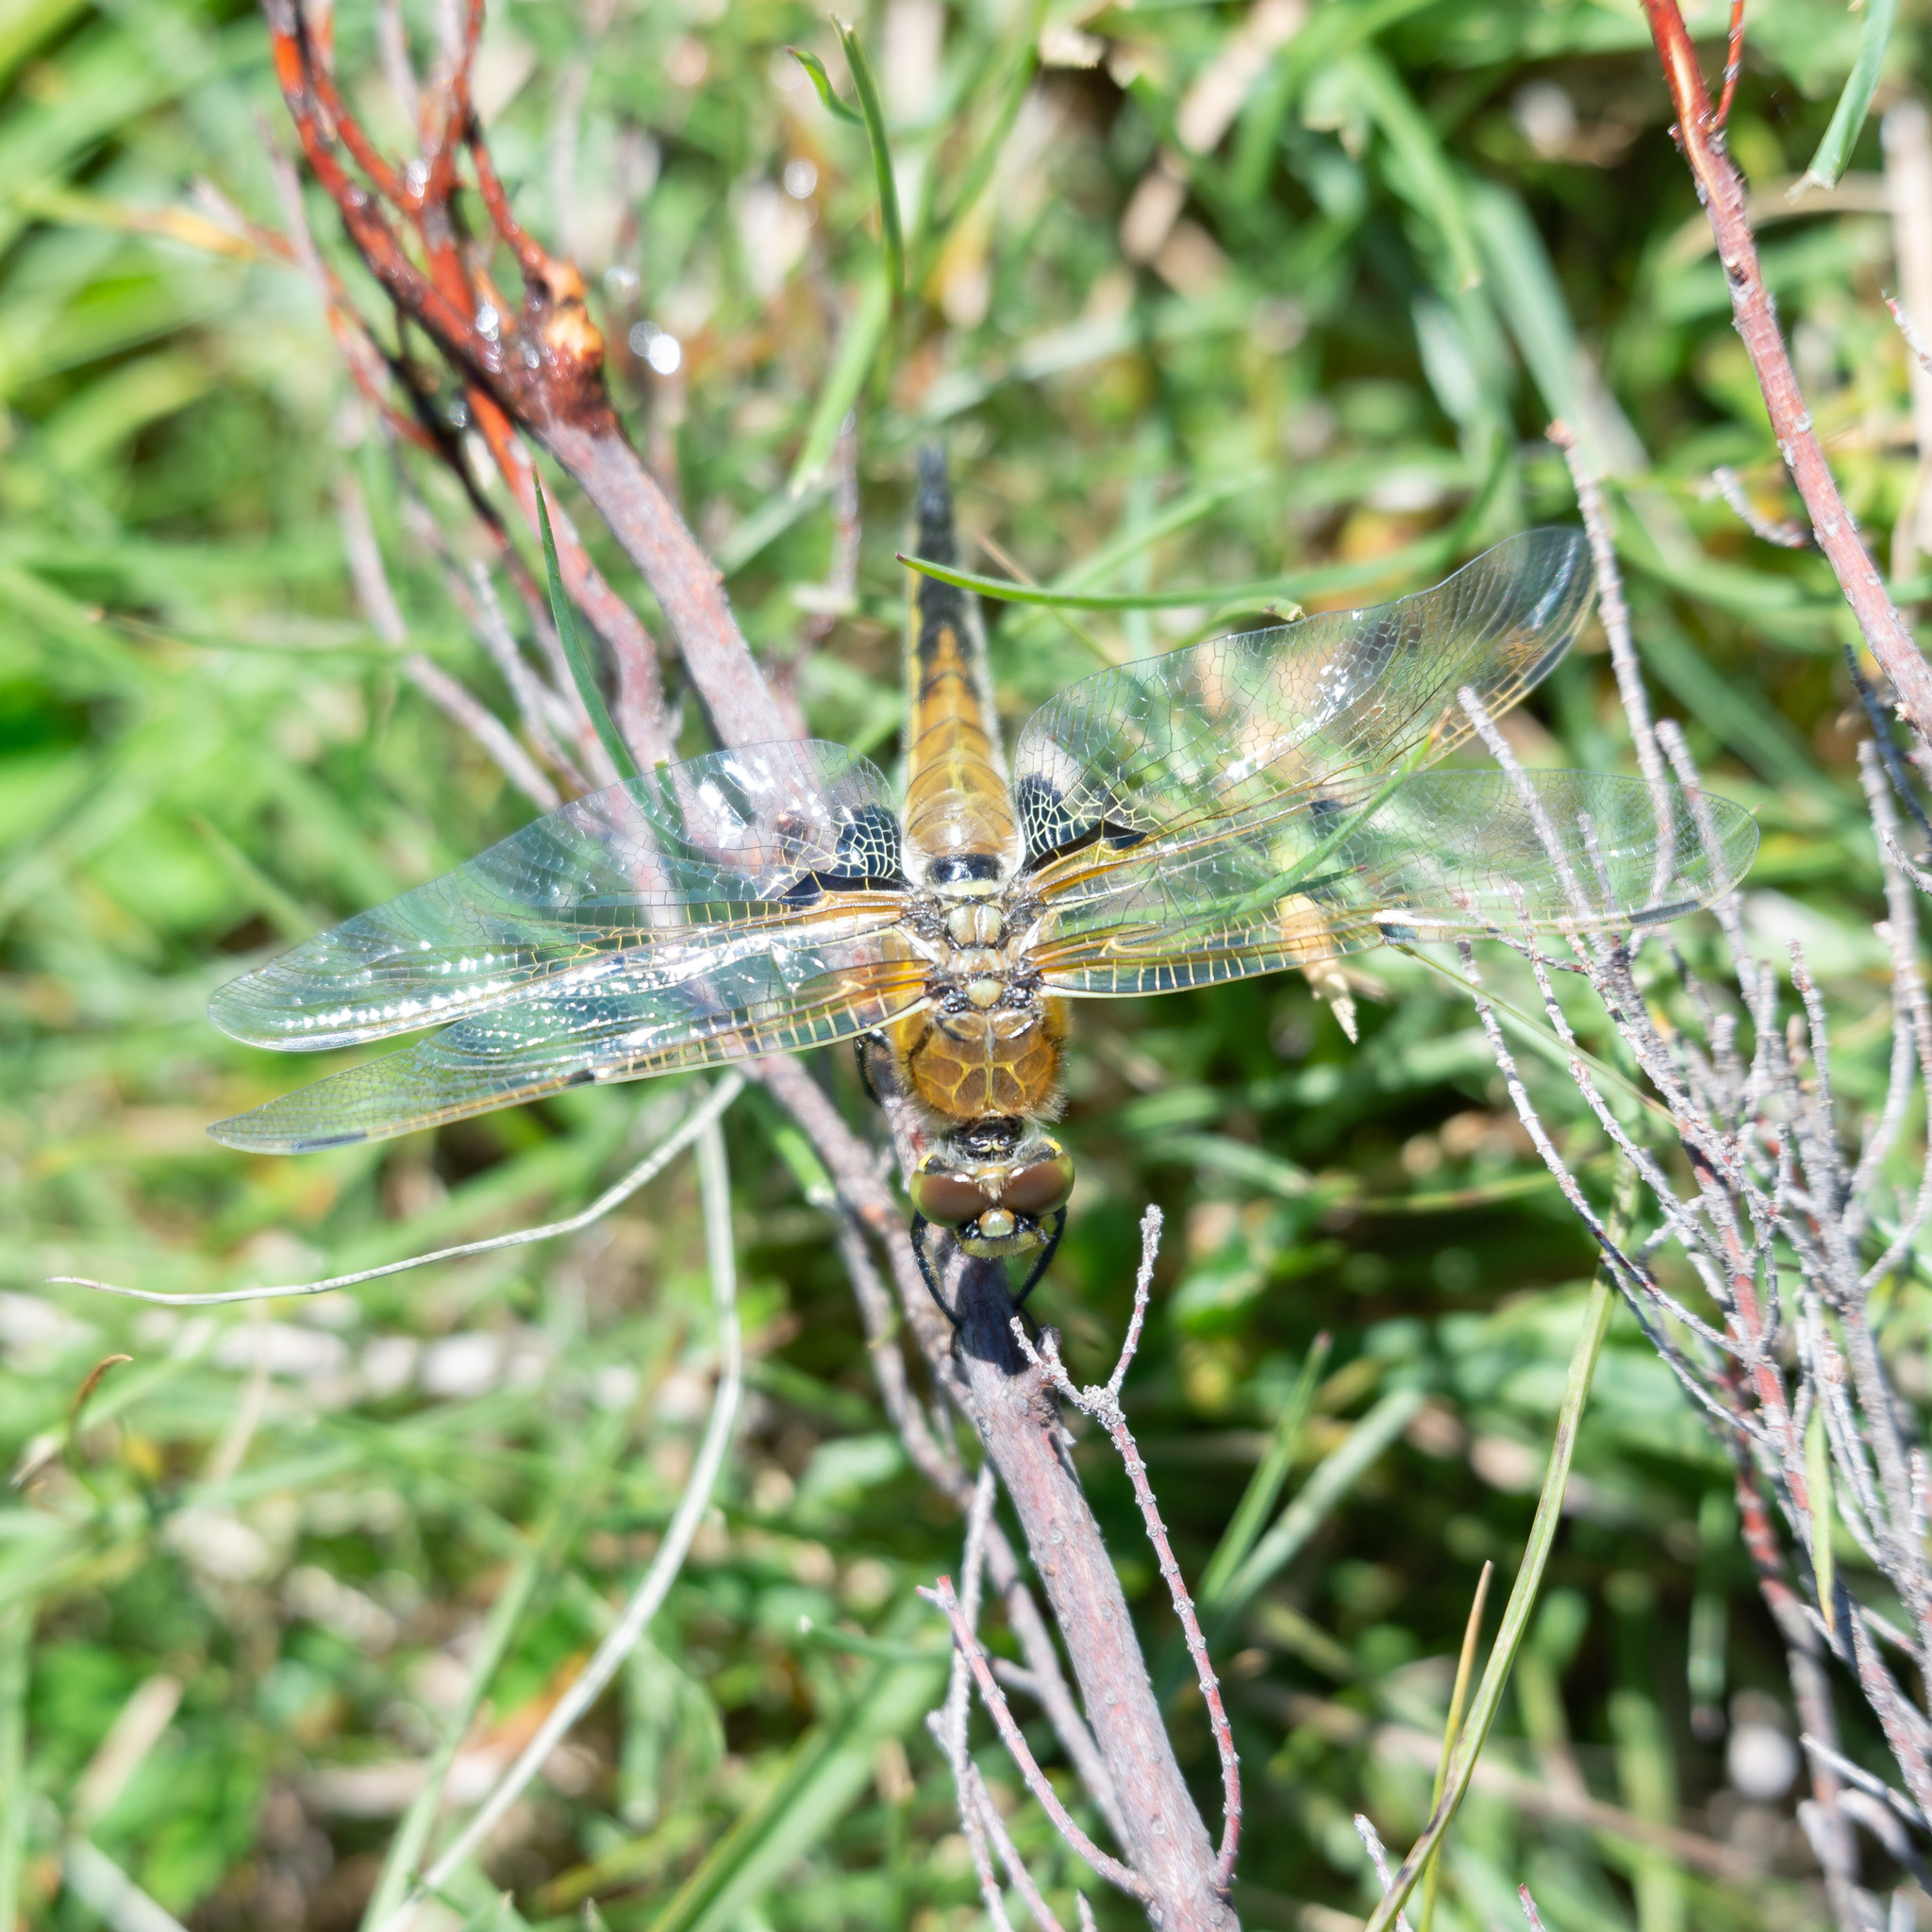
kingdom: Animalia
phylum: Arthropoda
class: Insecta
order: Odonata
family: Libellulidae
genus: Libellula
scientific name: Libellula quadrimaculata
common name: Four-spotted chaser
